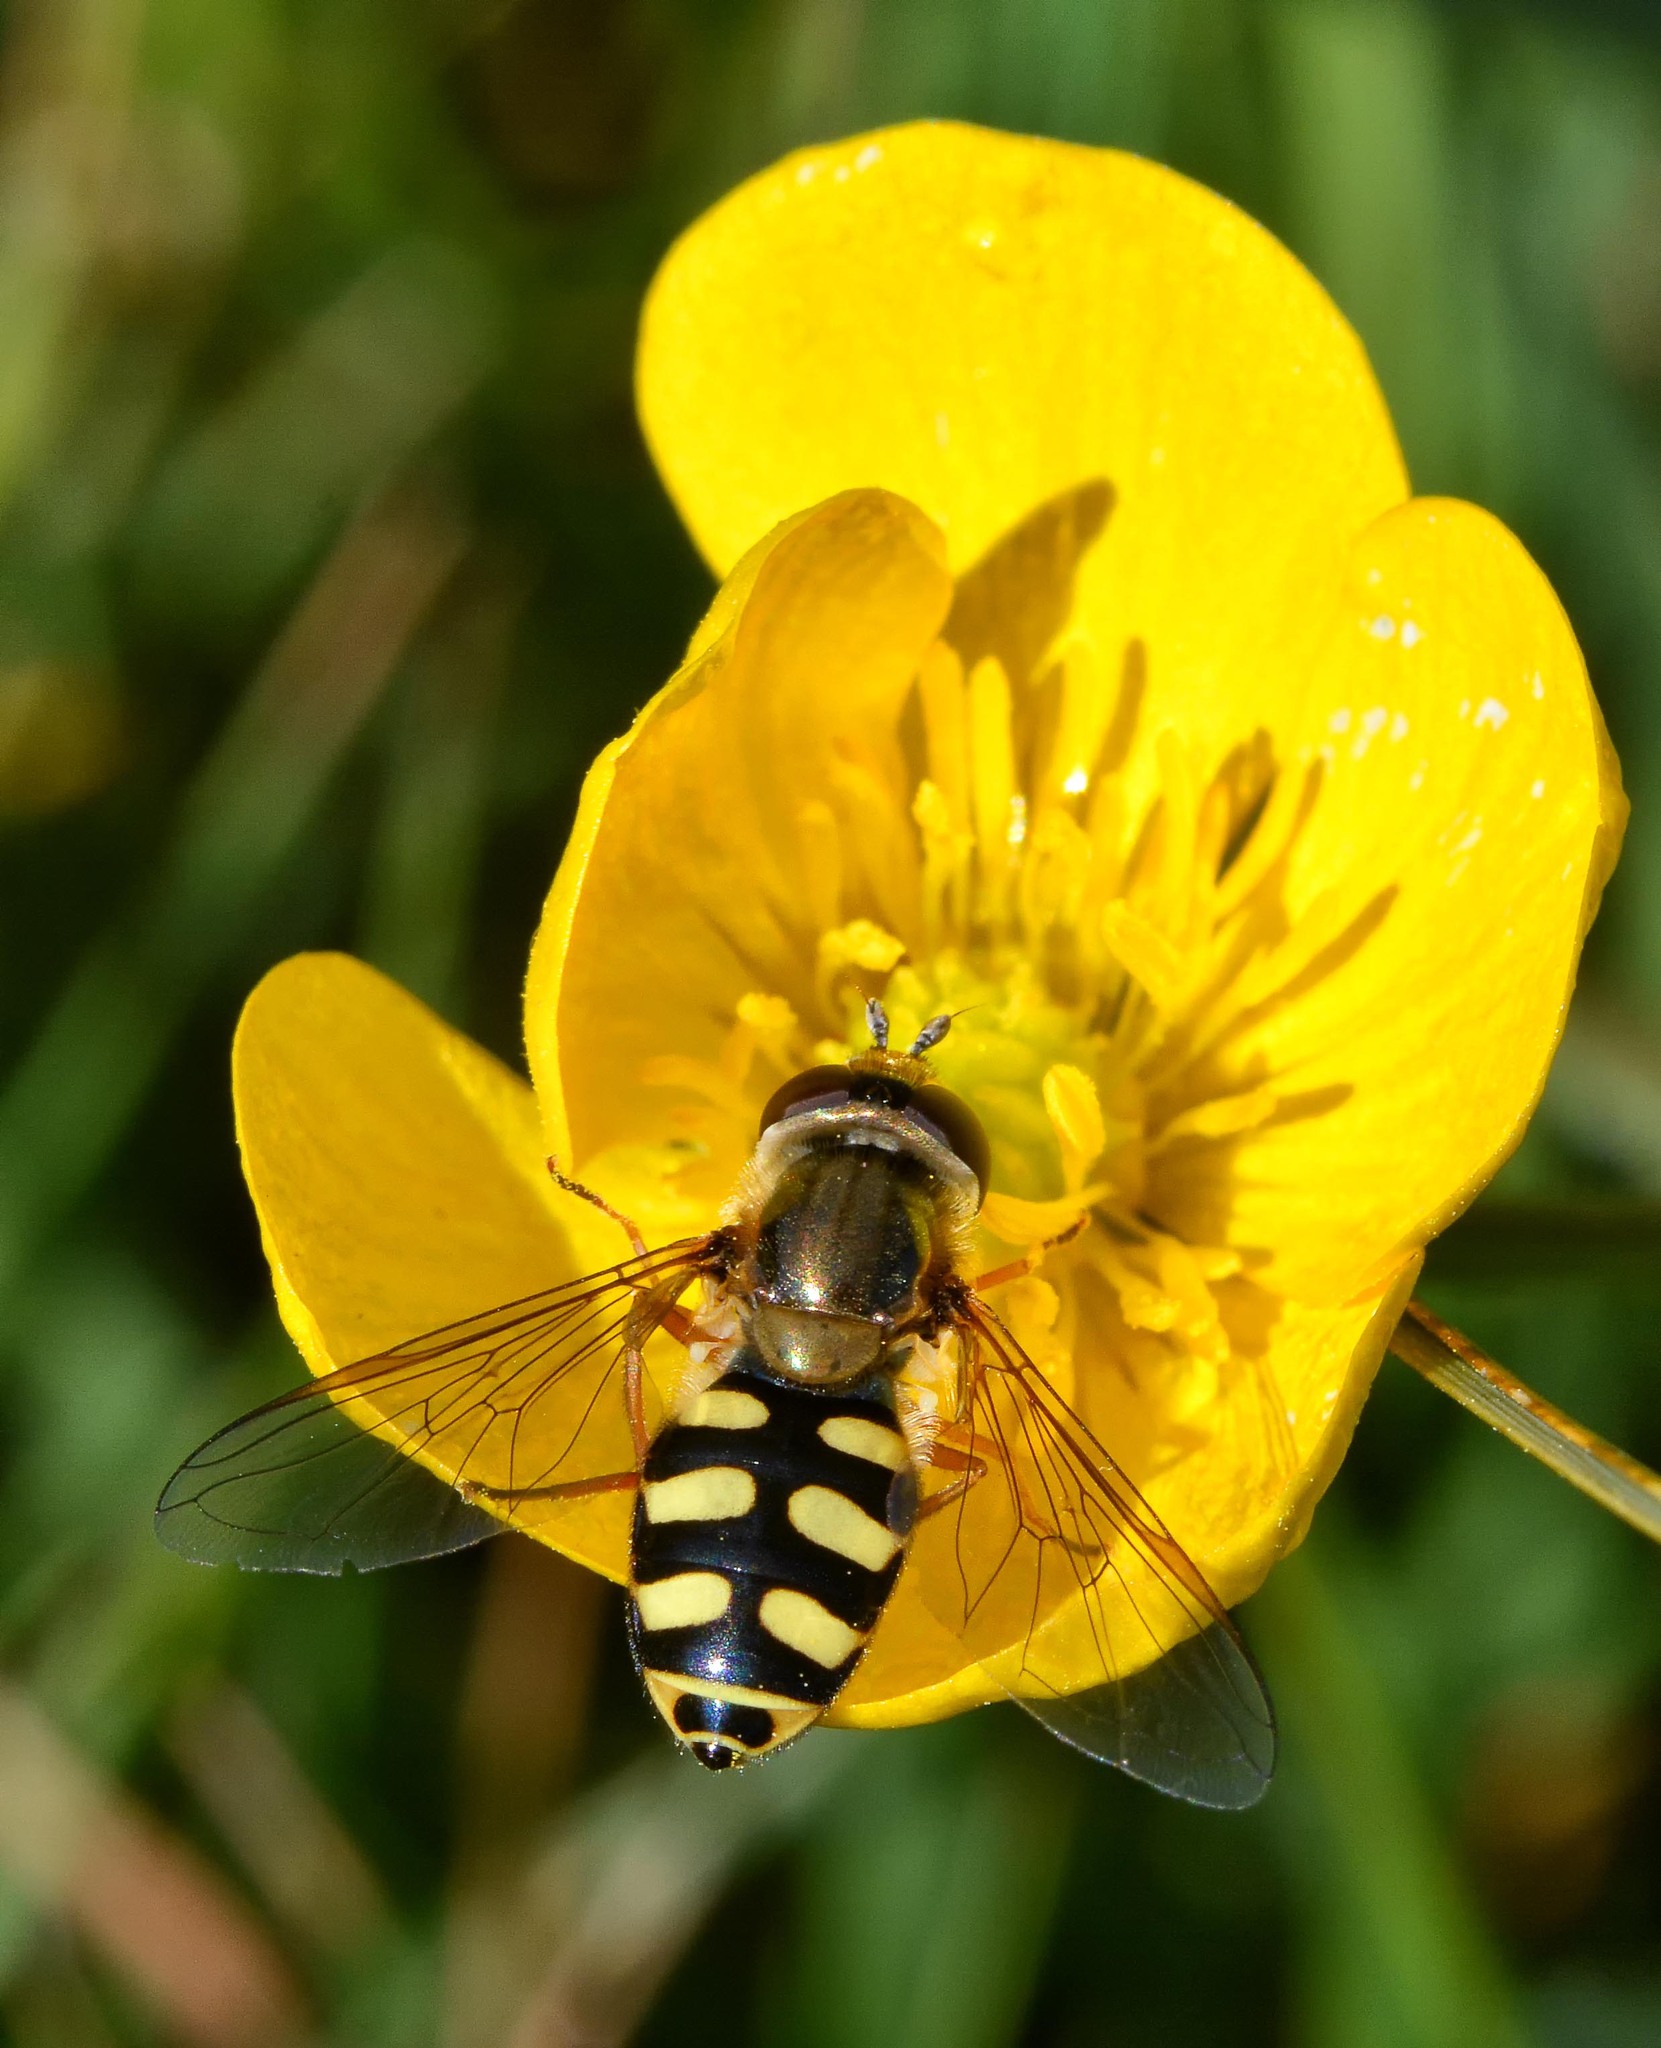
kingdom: Animalia
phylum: Arthropoda
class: Insecta
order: Diptera
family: Syrphidae
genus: Eupeodes
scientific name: Eupeodes corollae
